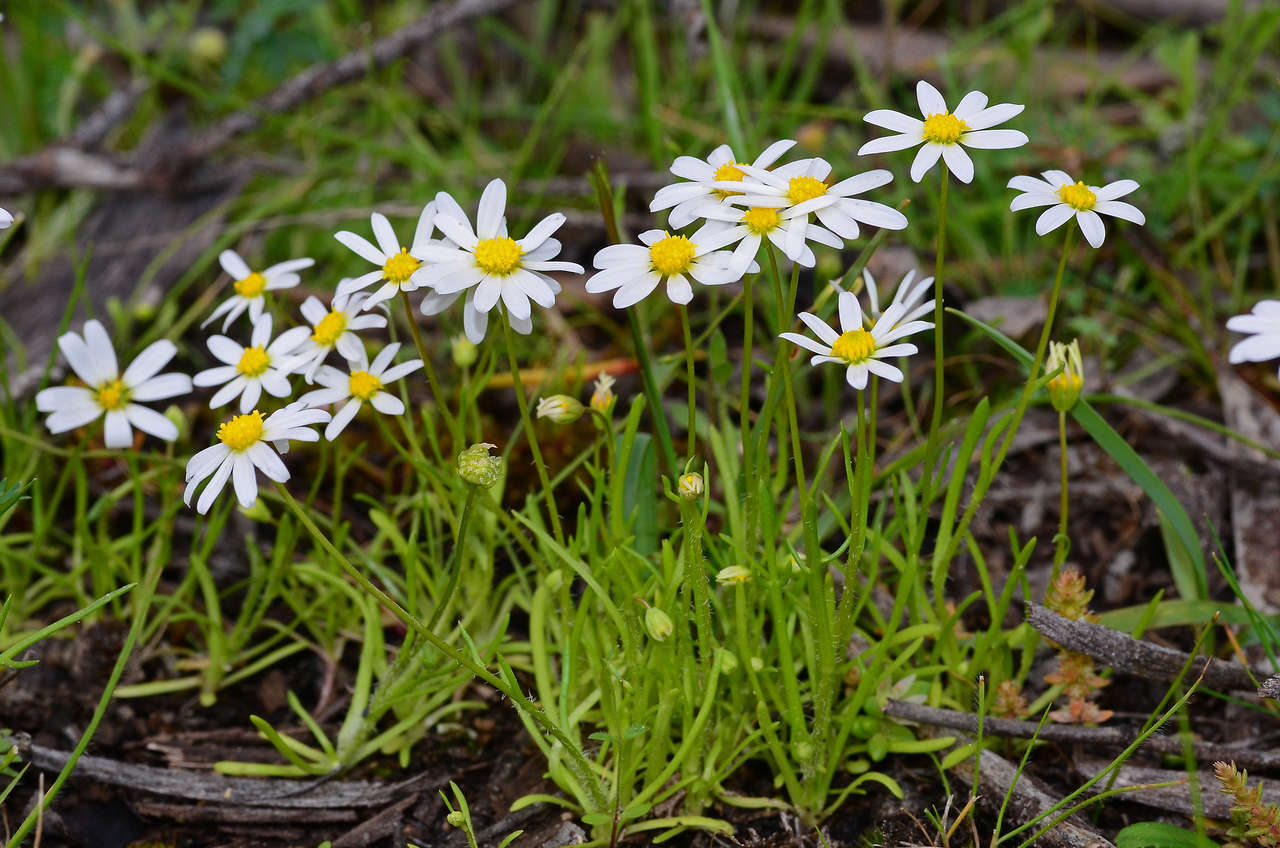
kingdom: Plantae
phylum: Tracheophyta
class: Magnoliopsida
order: Asterales
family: Asteraceae
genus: Brachyscome
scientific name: Brachyscome readeri
